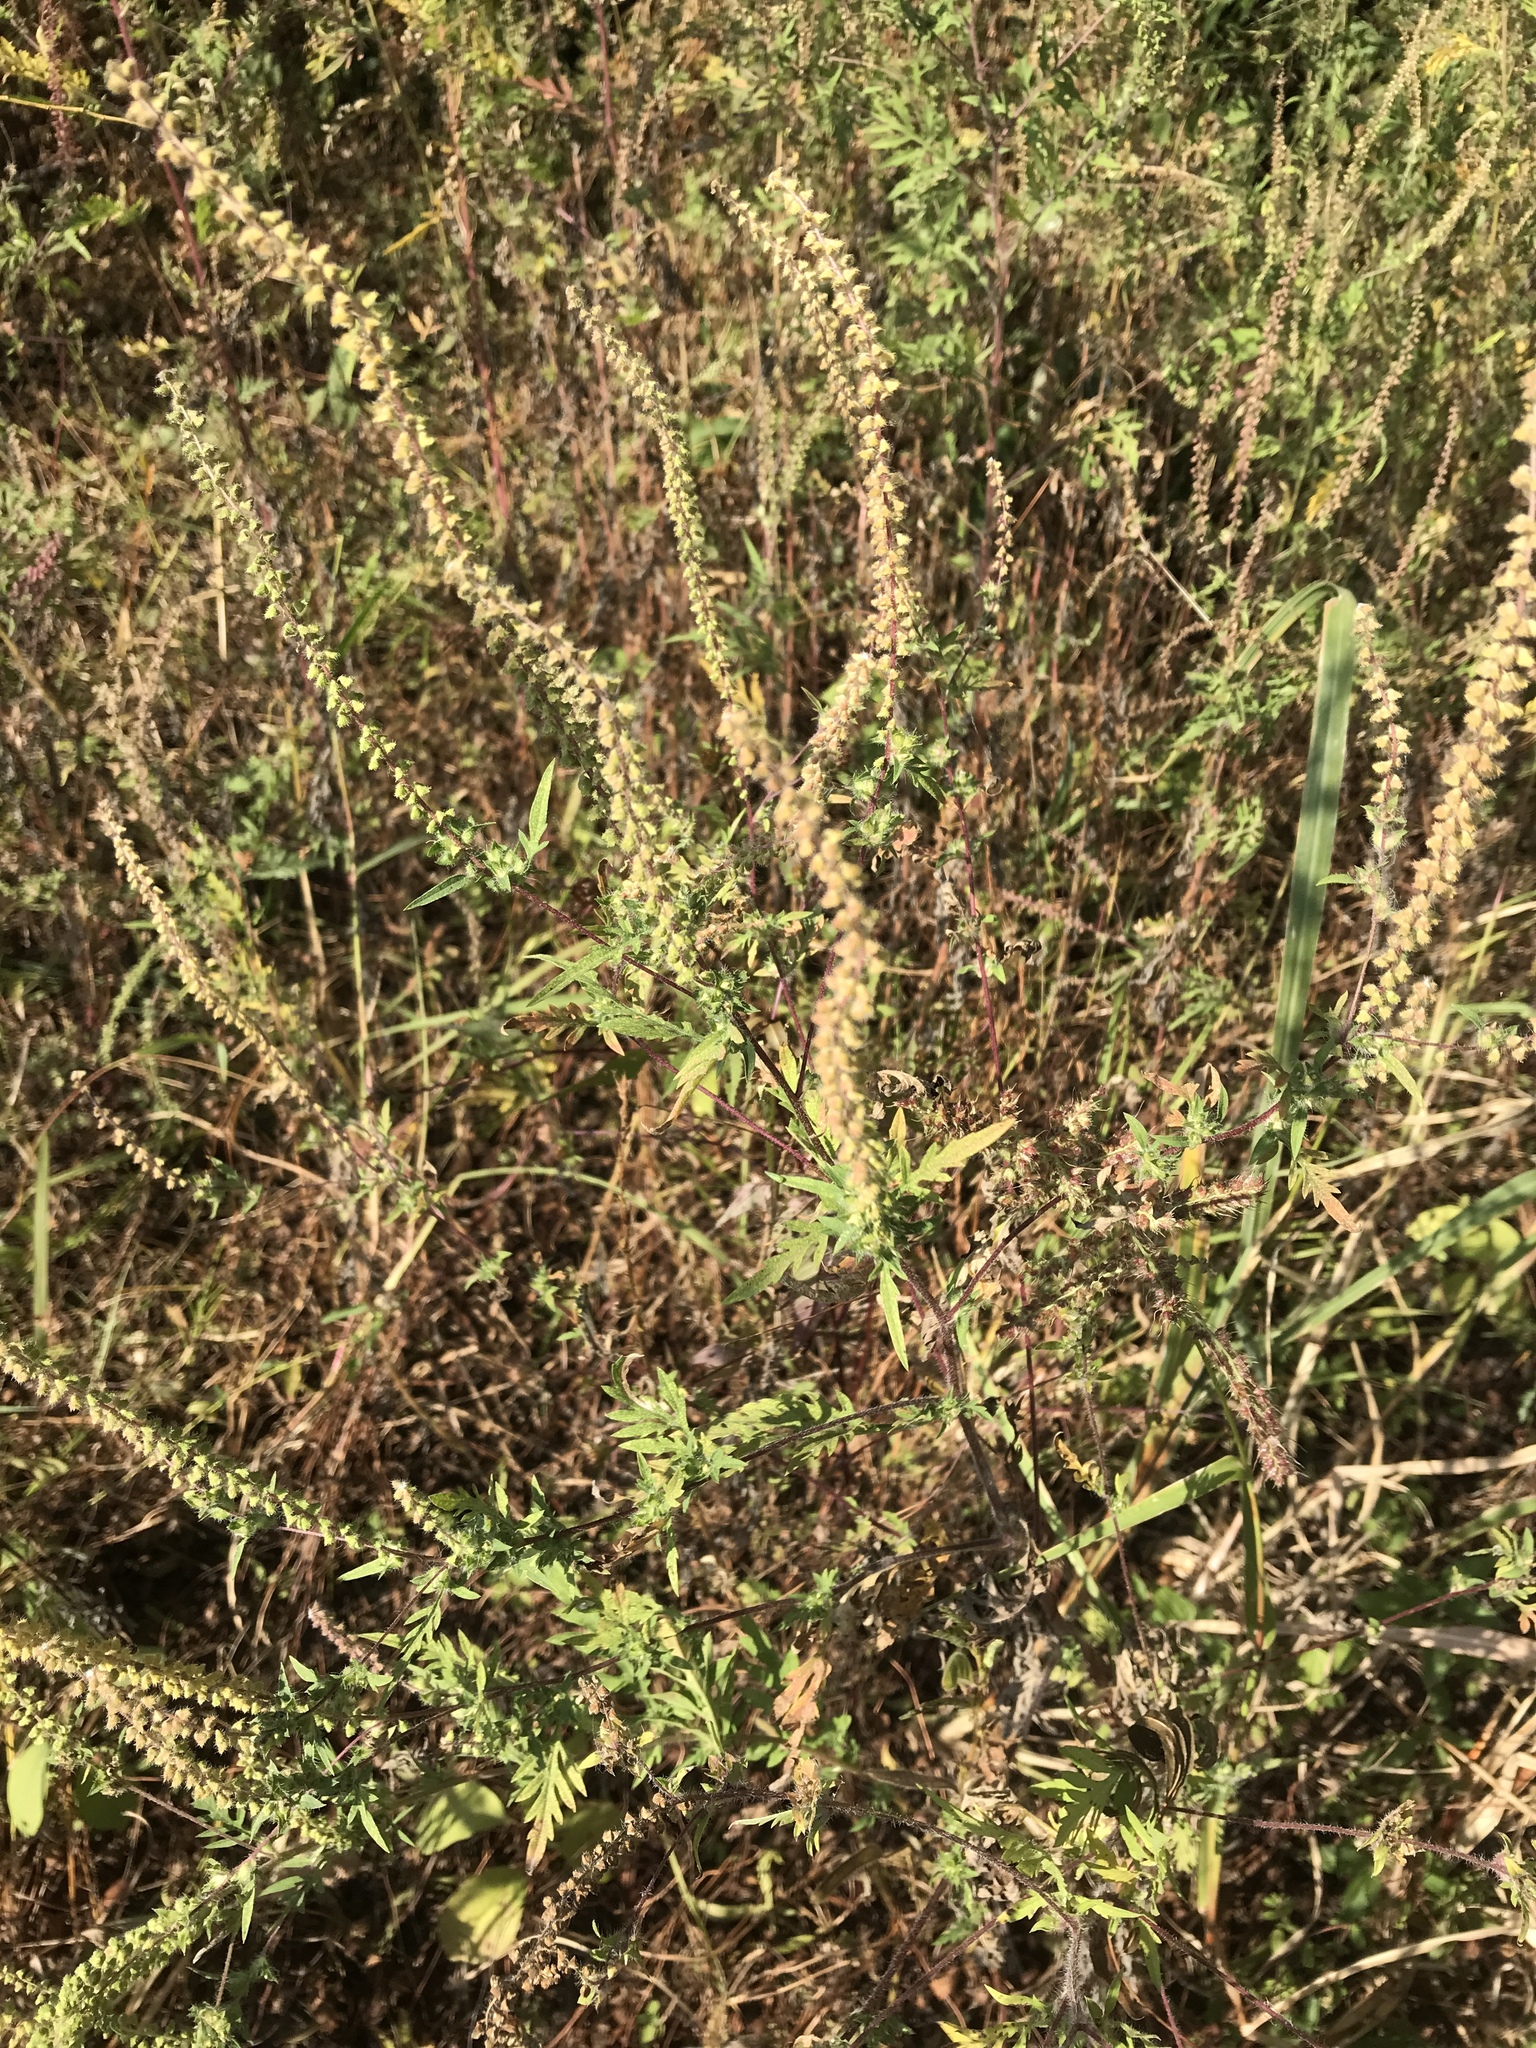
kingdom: Plantae
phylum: Tracheophyta
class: Magnoliopsida
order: Asterales
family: Asteraceae
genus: Ambrosia
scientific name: Ambrosia artemisiifolia
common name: Annual ragweed
